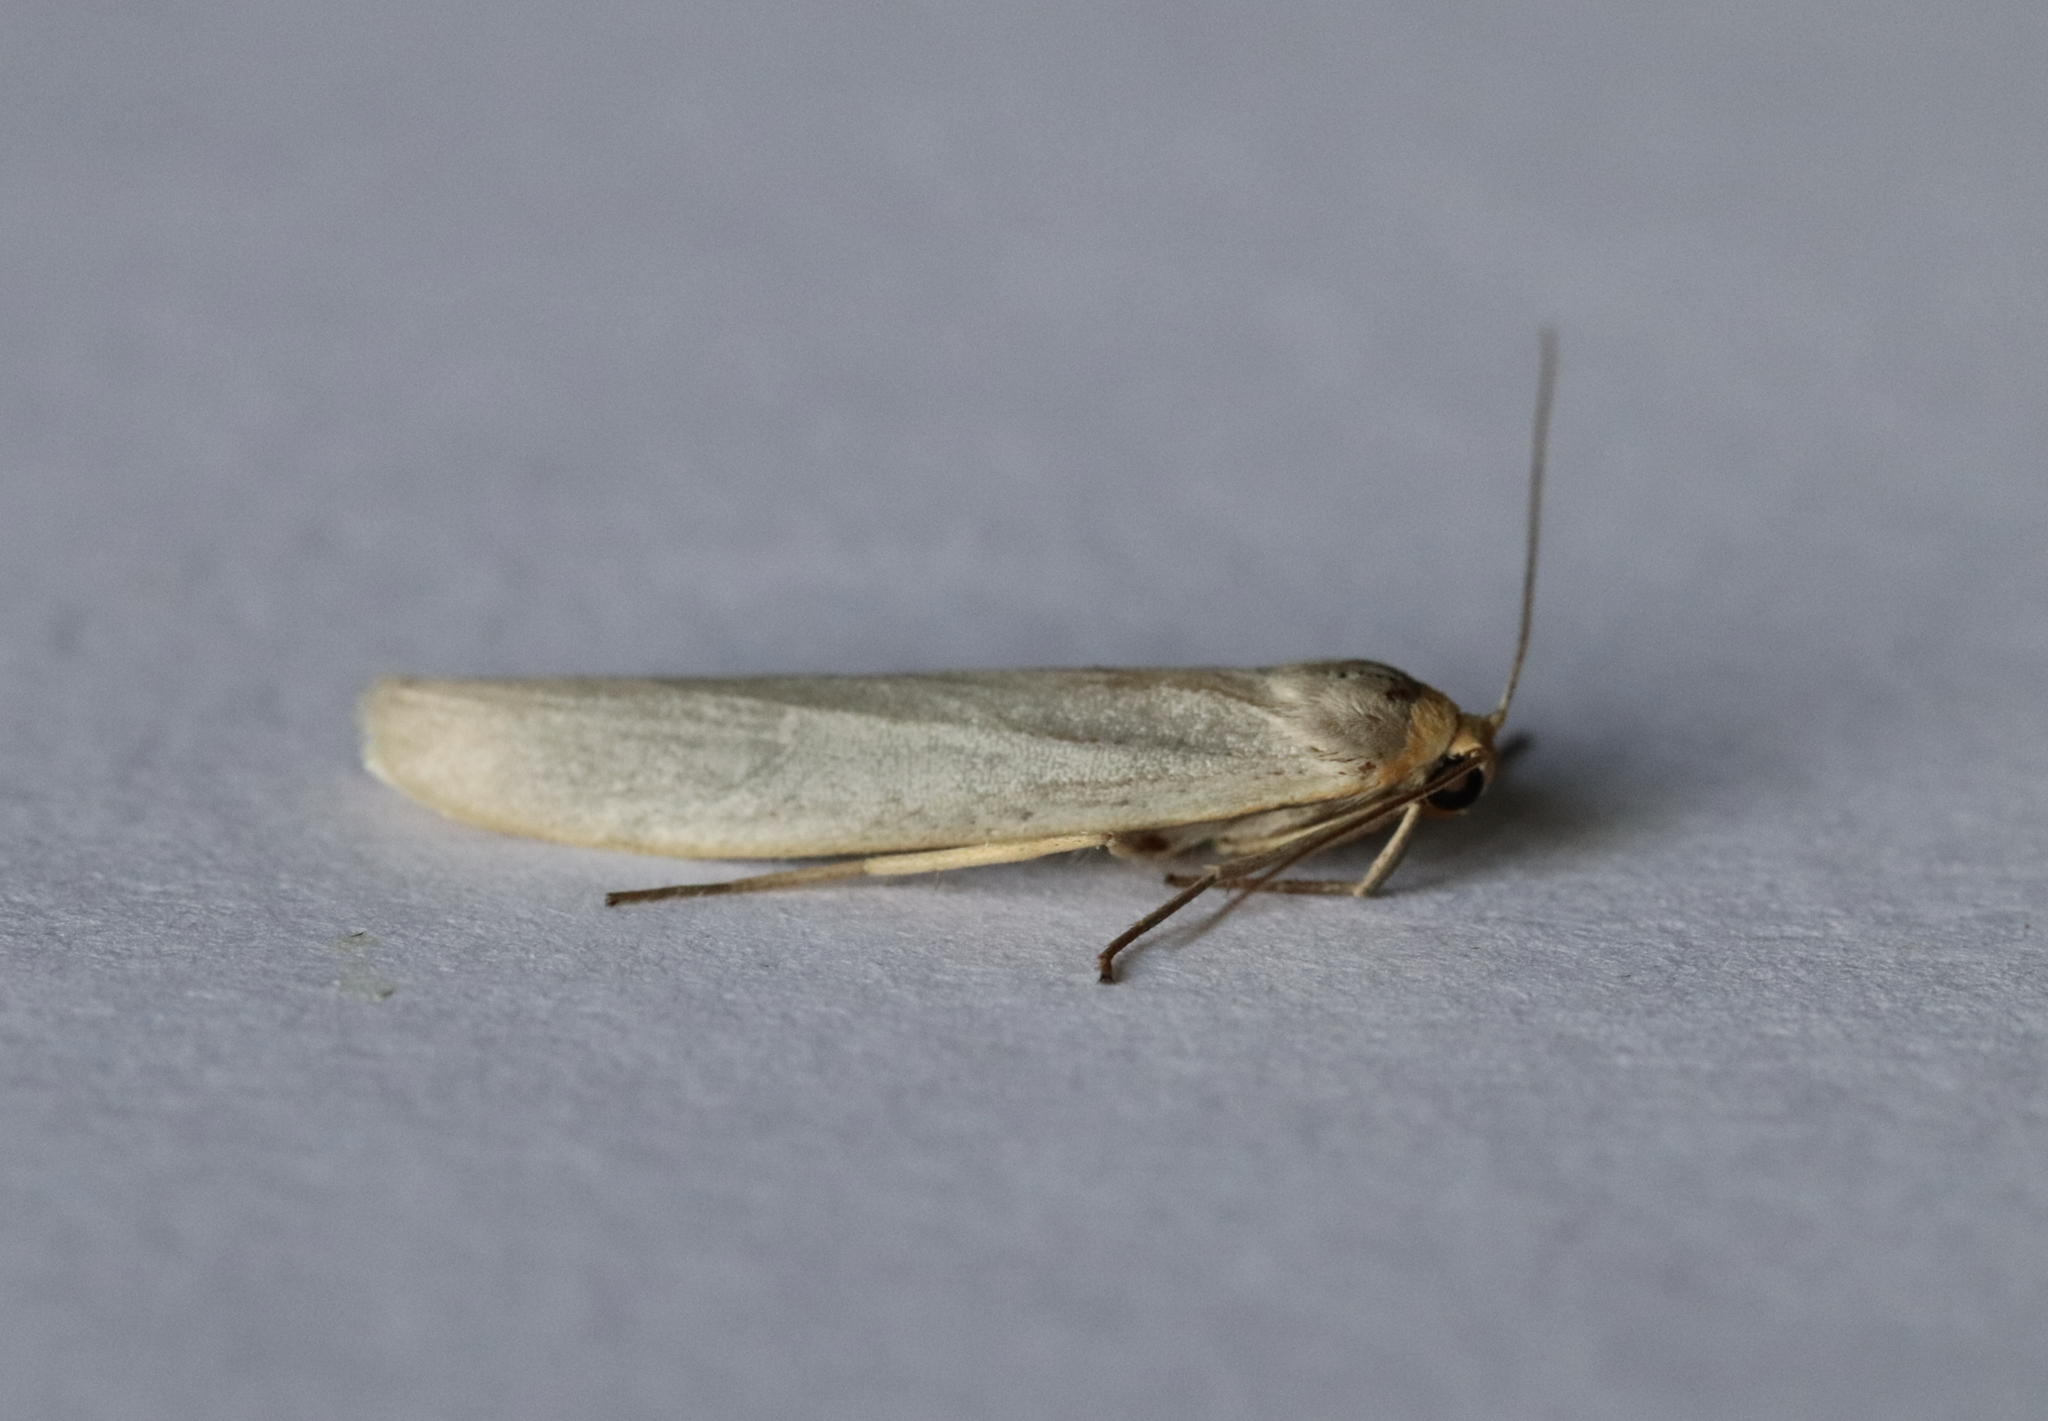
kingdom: Animalia
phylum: Arthropoda
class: Insecta
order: Lepidoptera
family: Erebidae
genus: Eilema
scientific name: Eilema caniola
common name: Hoary footman
